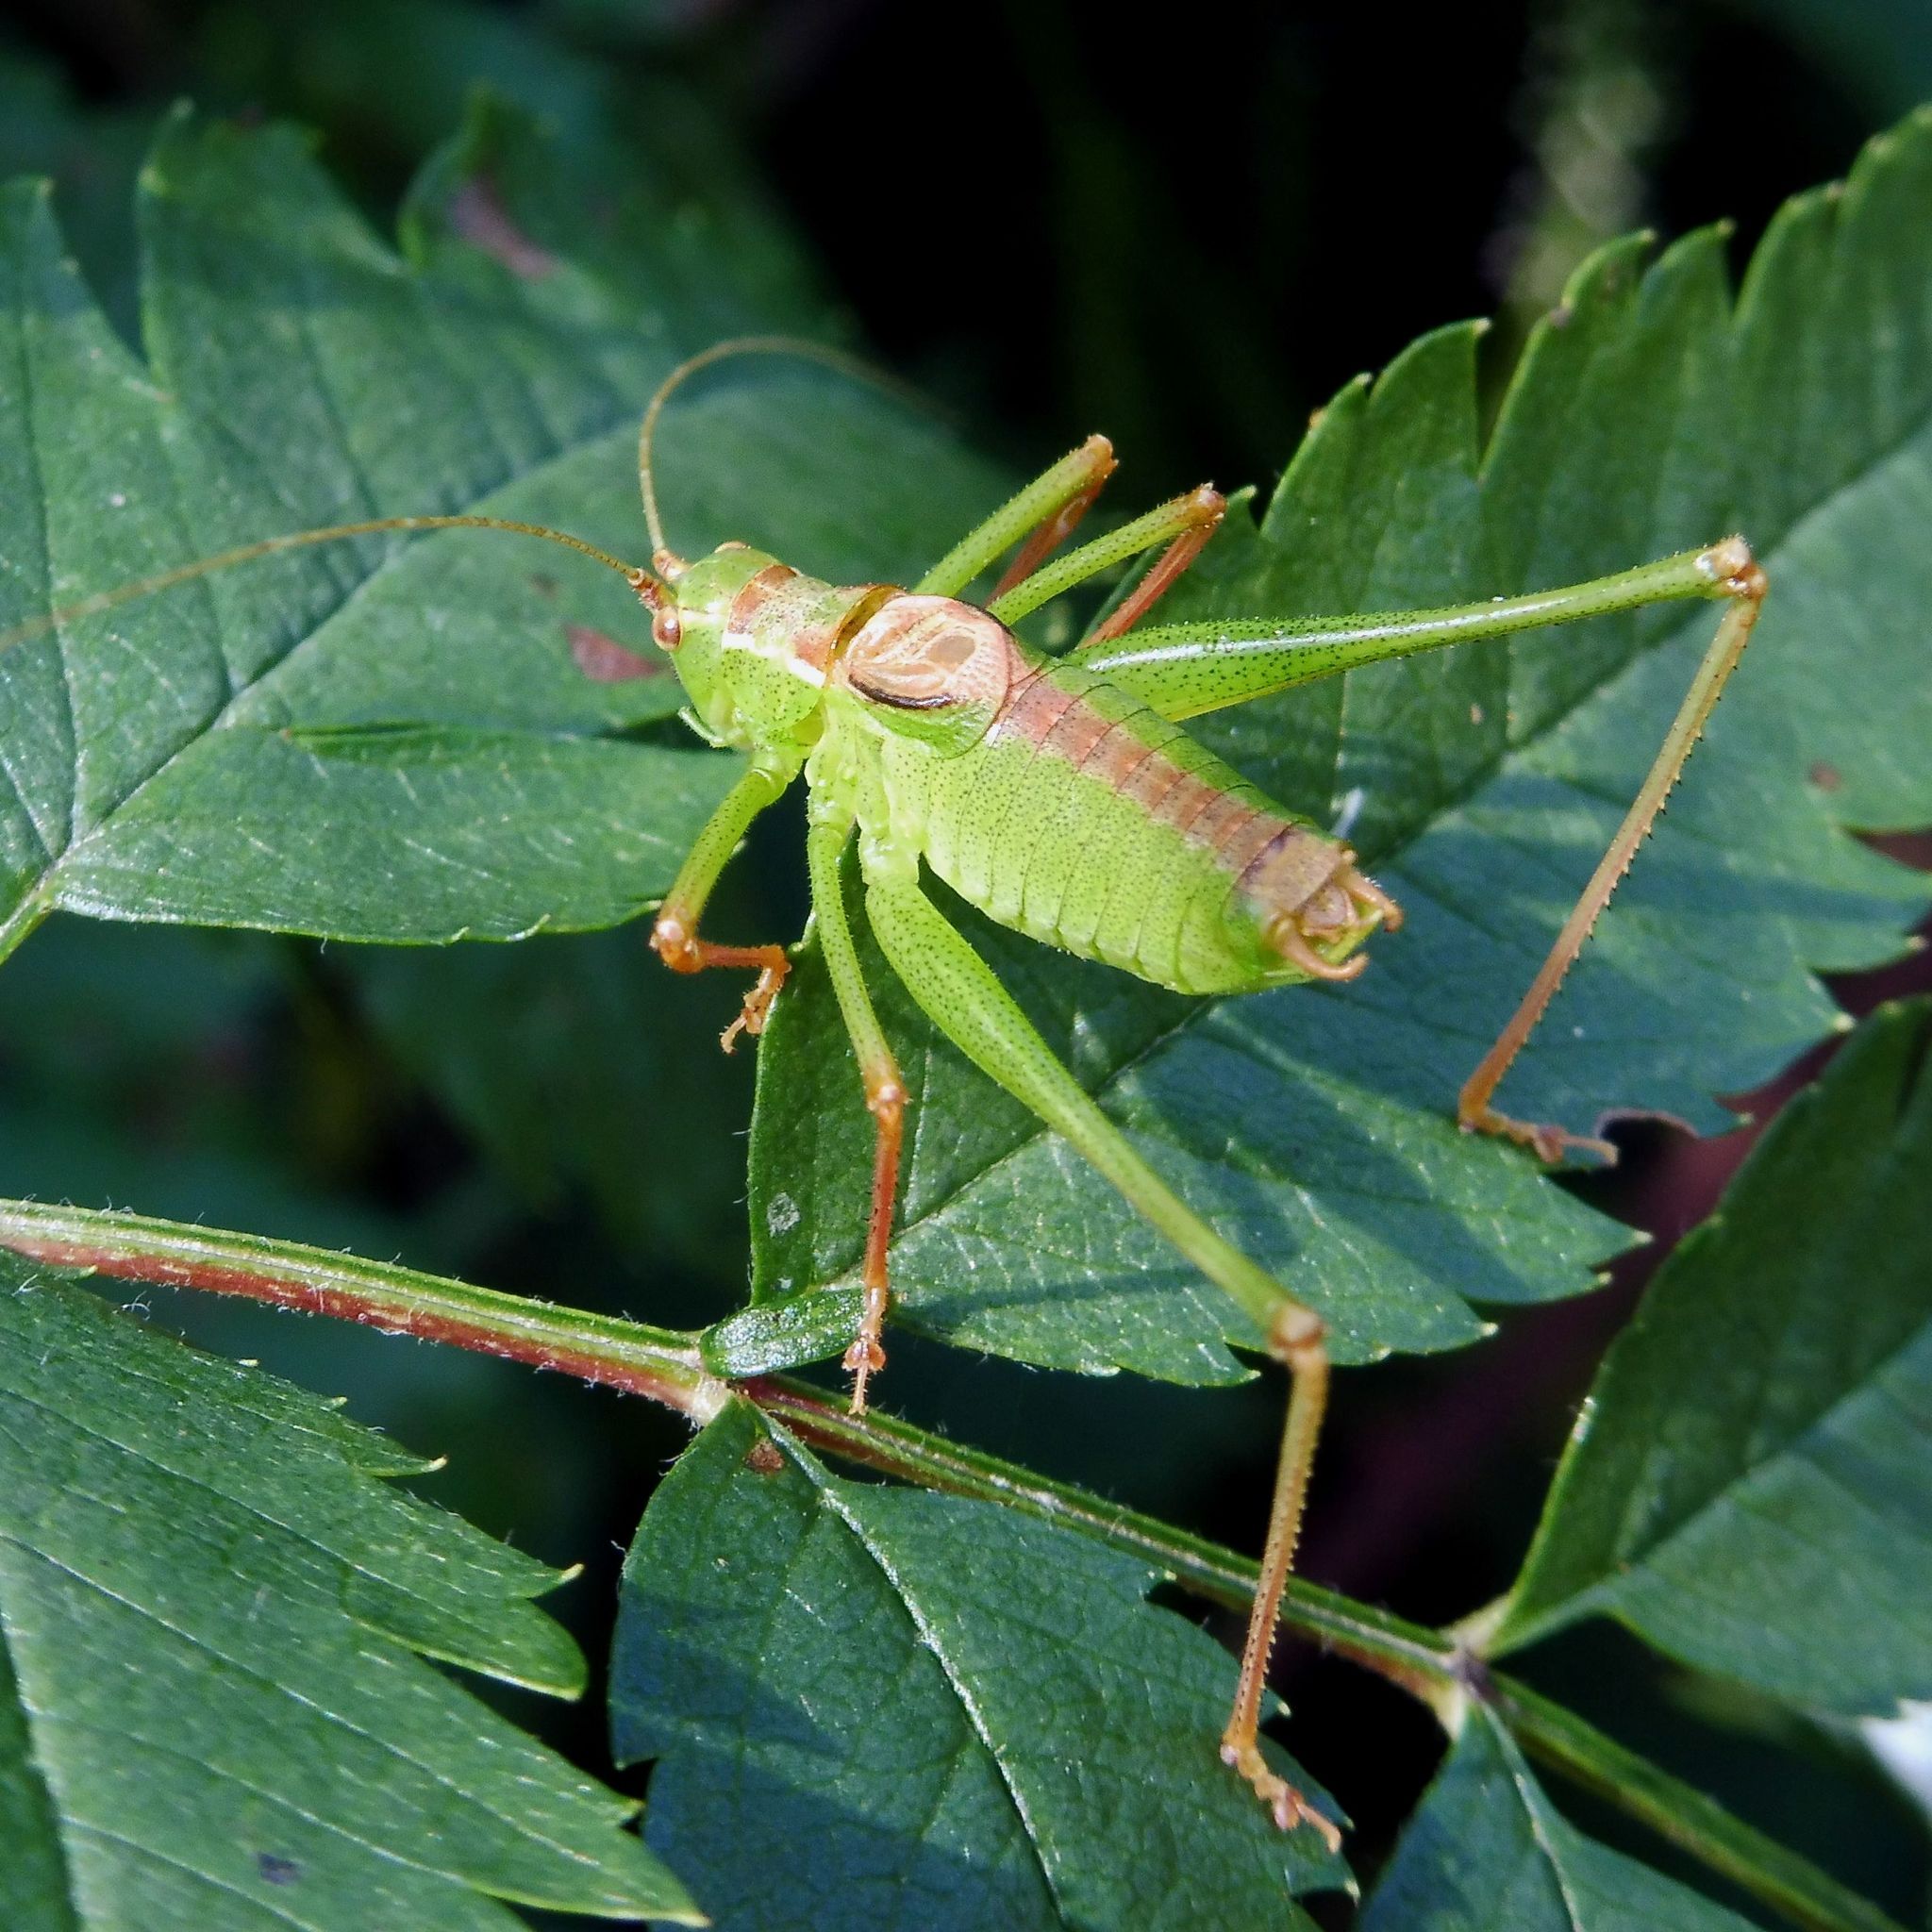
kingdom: Animalia
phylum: Arthropoda
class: Insecta
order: Orthoptera
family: Tettigoniidae
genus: Leptophyes
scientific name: Leptophyes punctatissima
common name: Speckled bush-cricket
